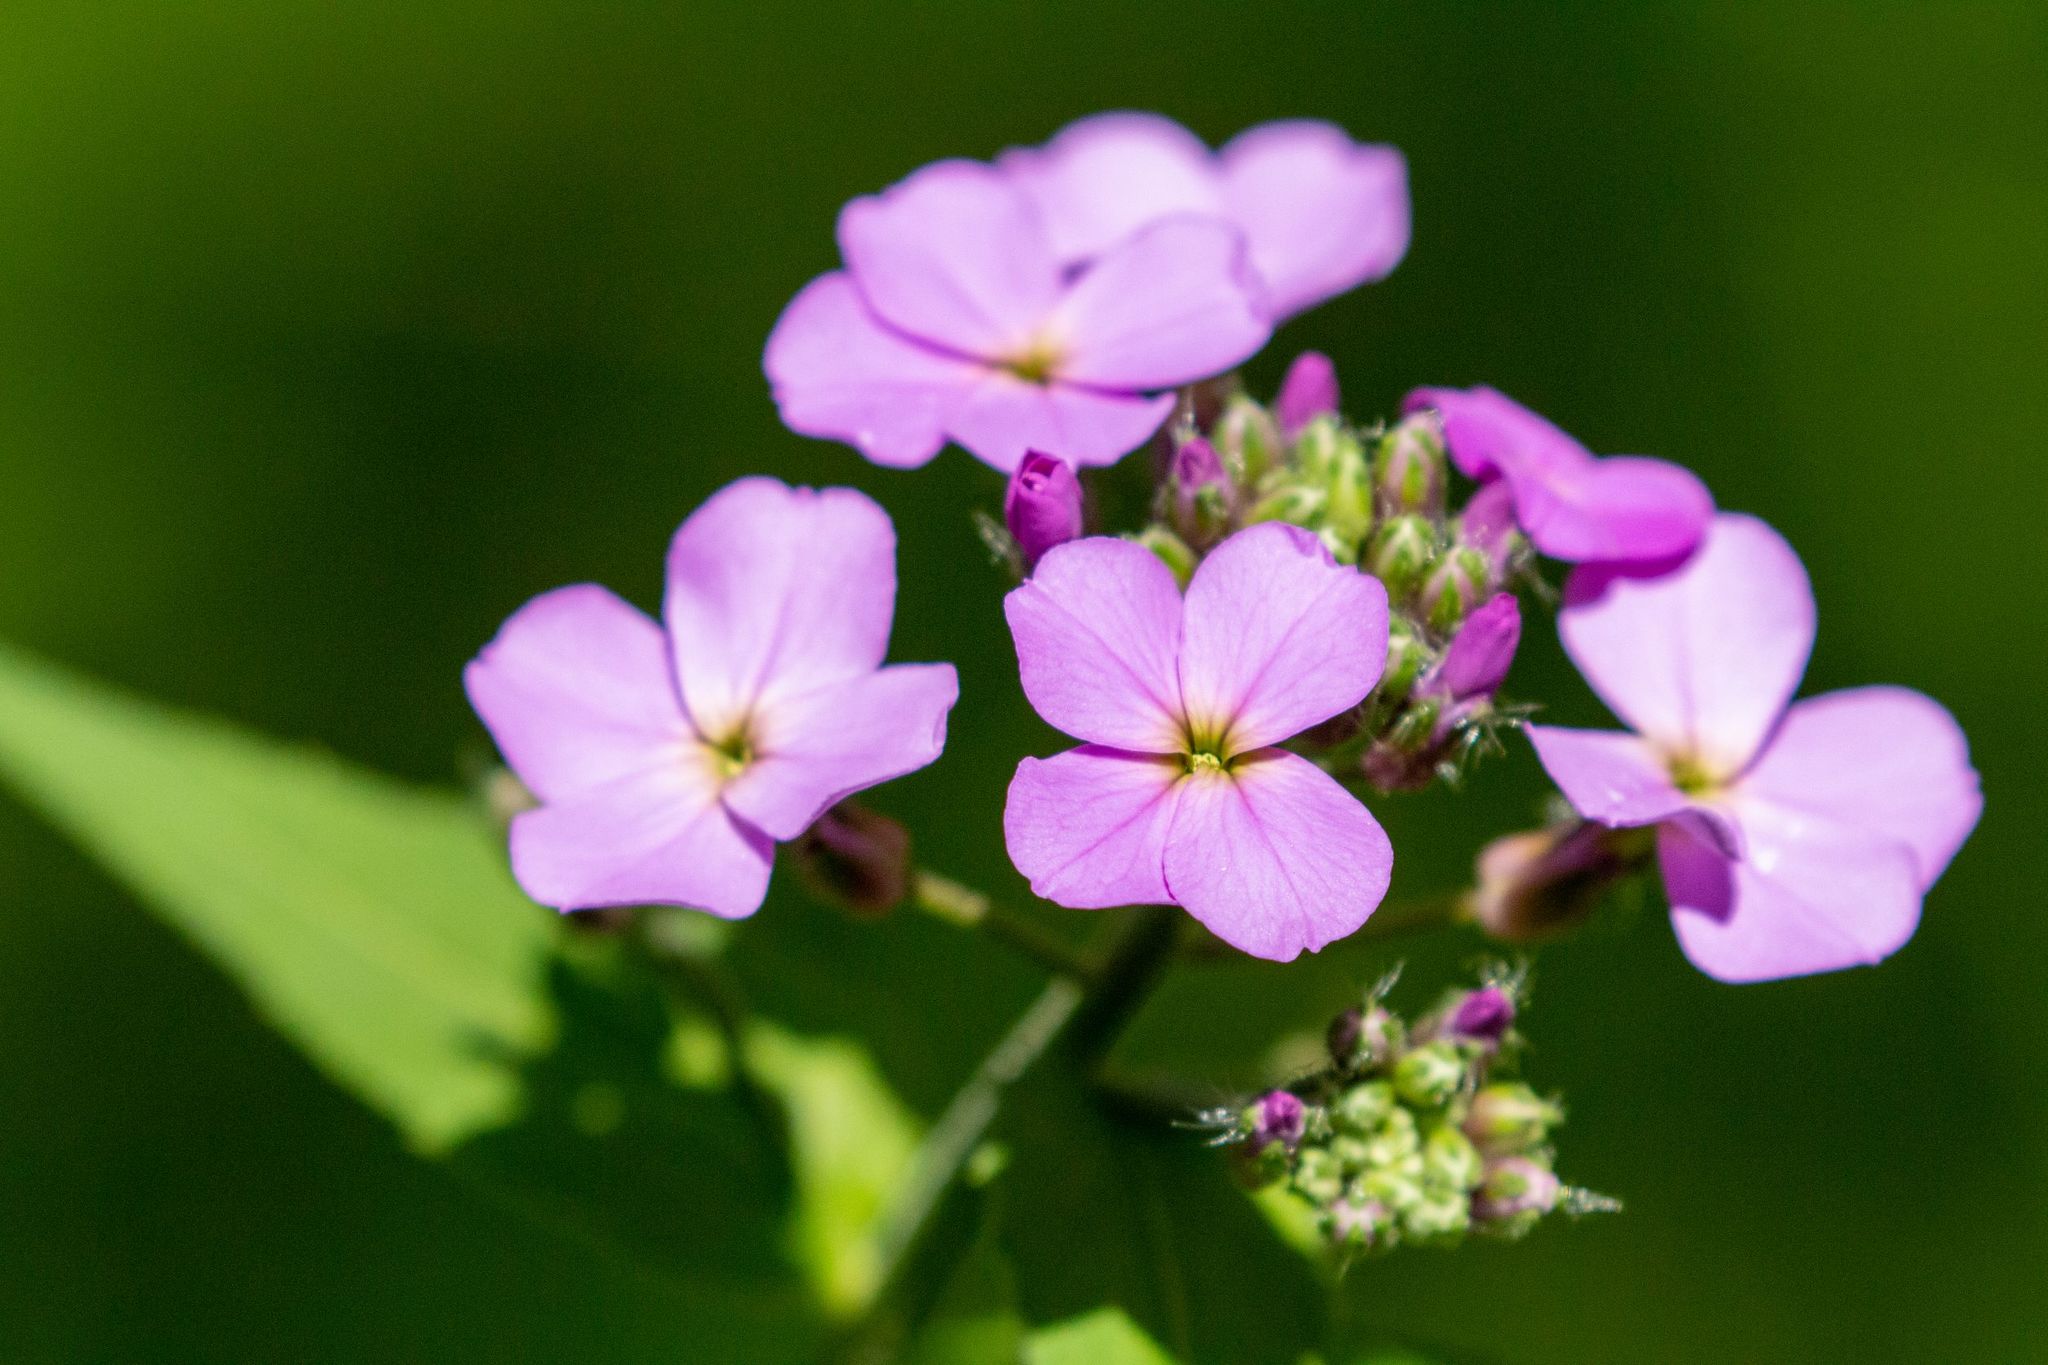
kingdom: Plantae
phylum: Tracheophyta
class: Magnoliopsida
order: Brassicales
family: Brassicaceae
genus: Hesperis
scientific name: Hesperis matronalis
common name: Dame's-violet
